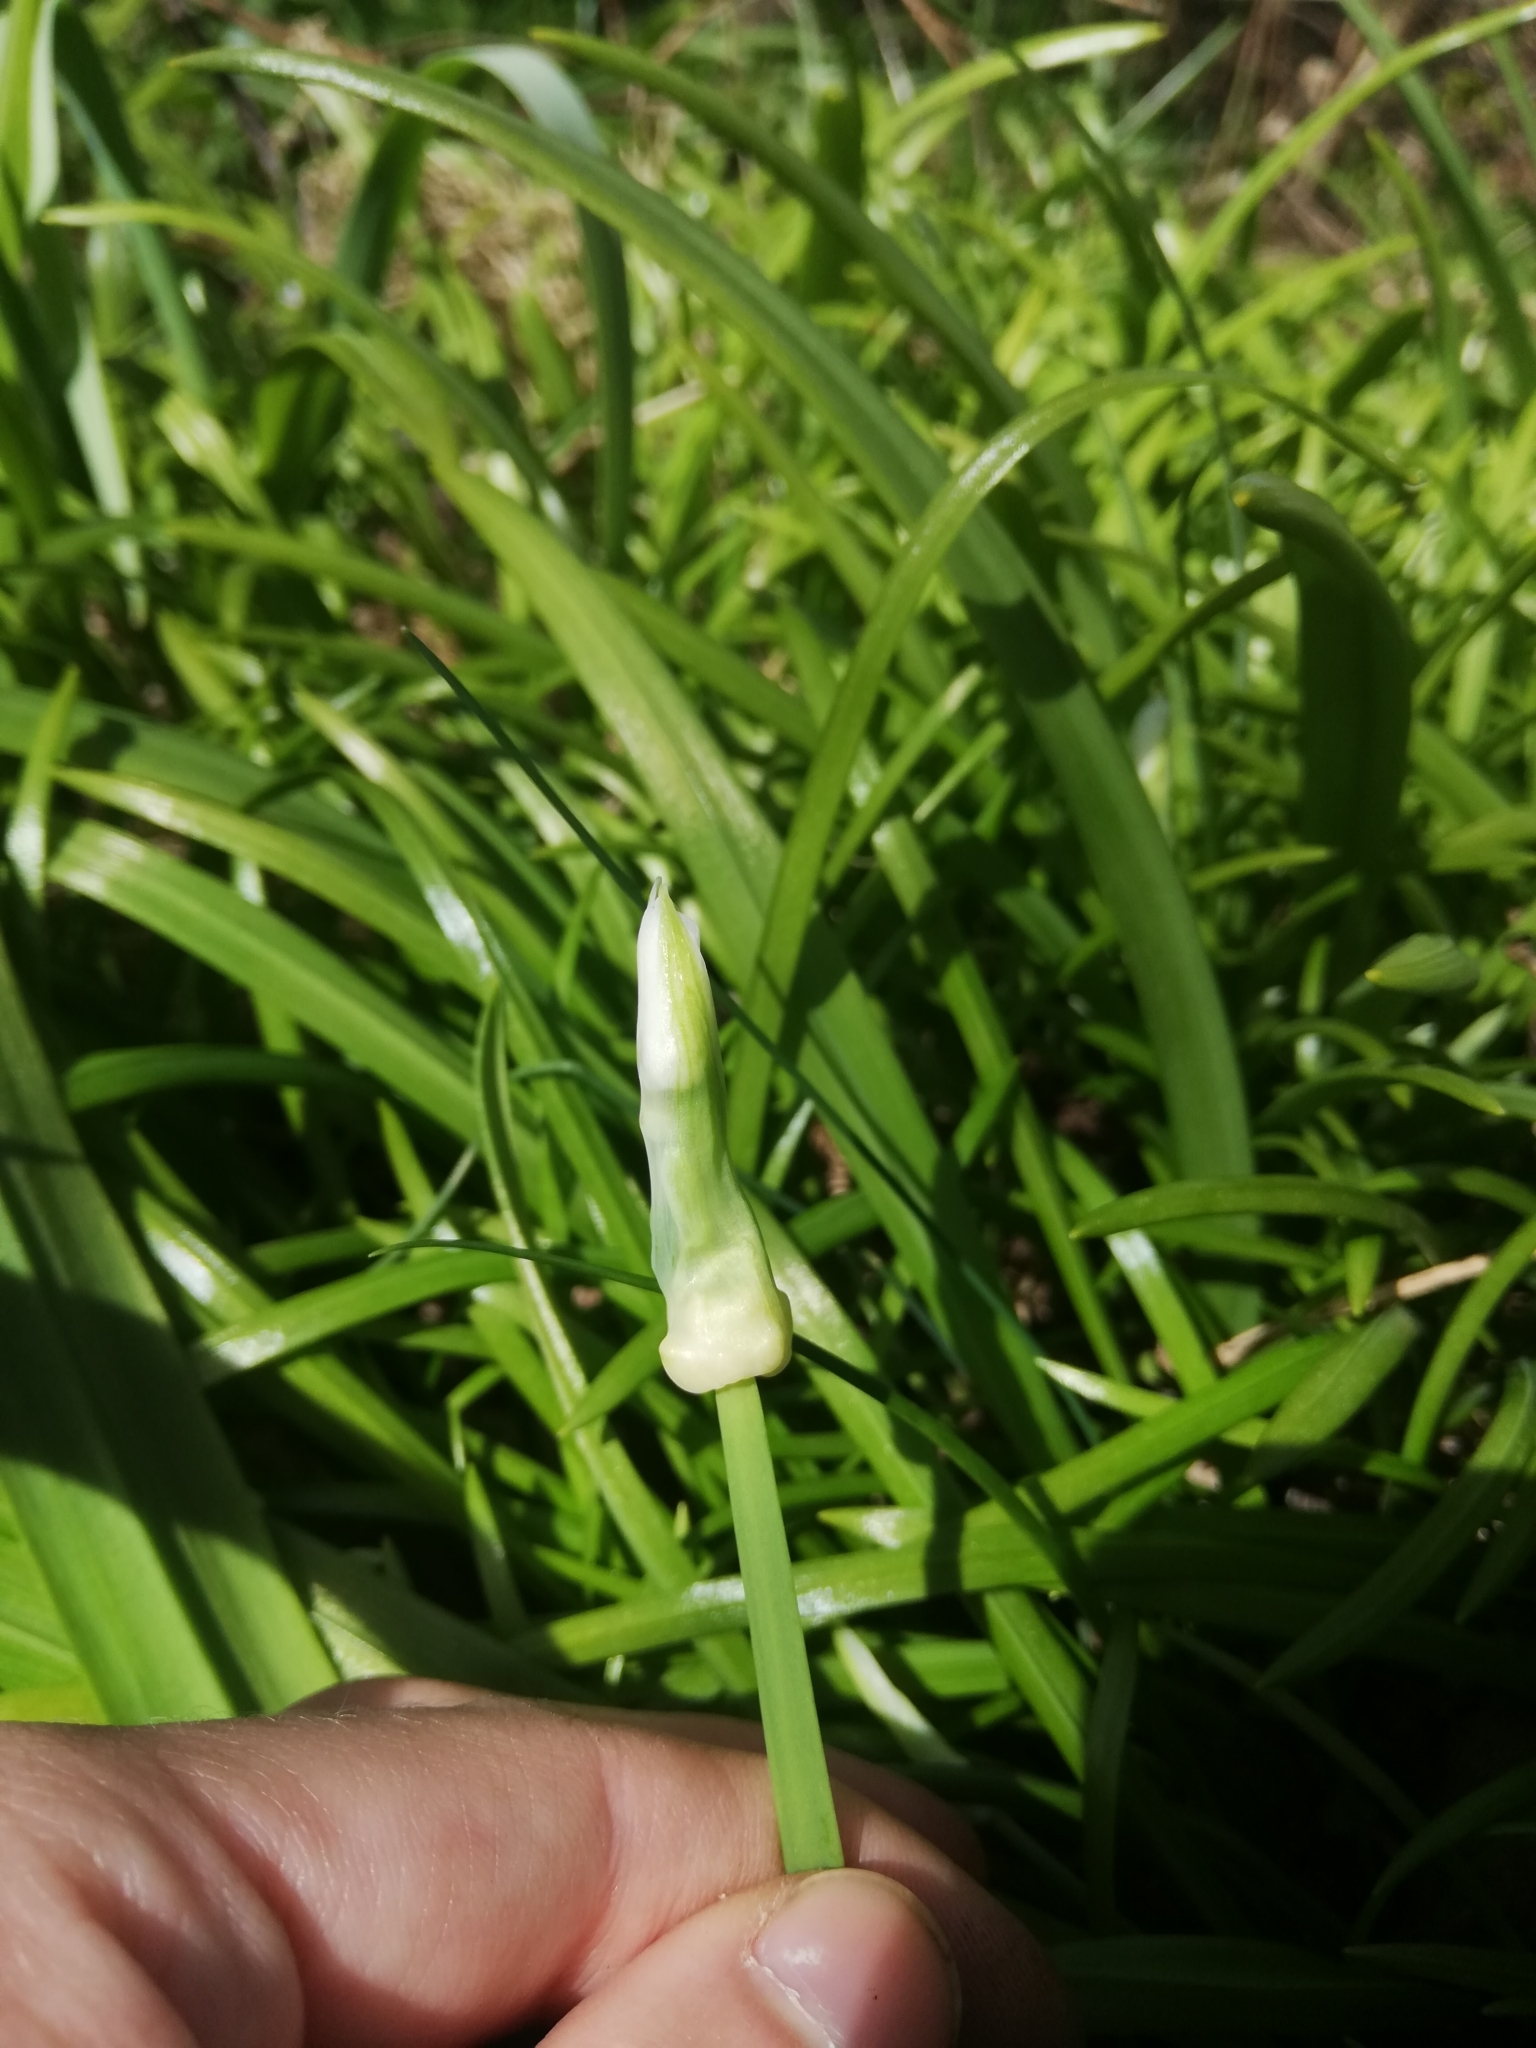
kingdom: Plantae
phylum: Tracheophyta
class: Liliopsida
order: Asparagales
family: Amaryllidaceae
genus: Allium
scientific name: Allium paradoxum
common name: Few-flowered garlic
